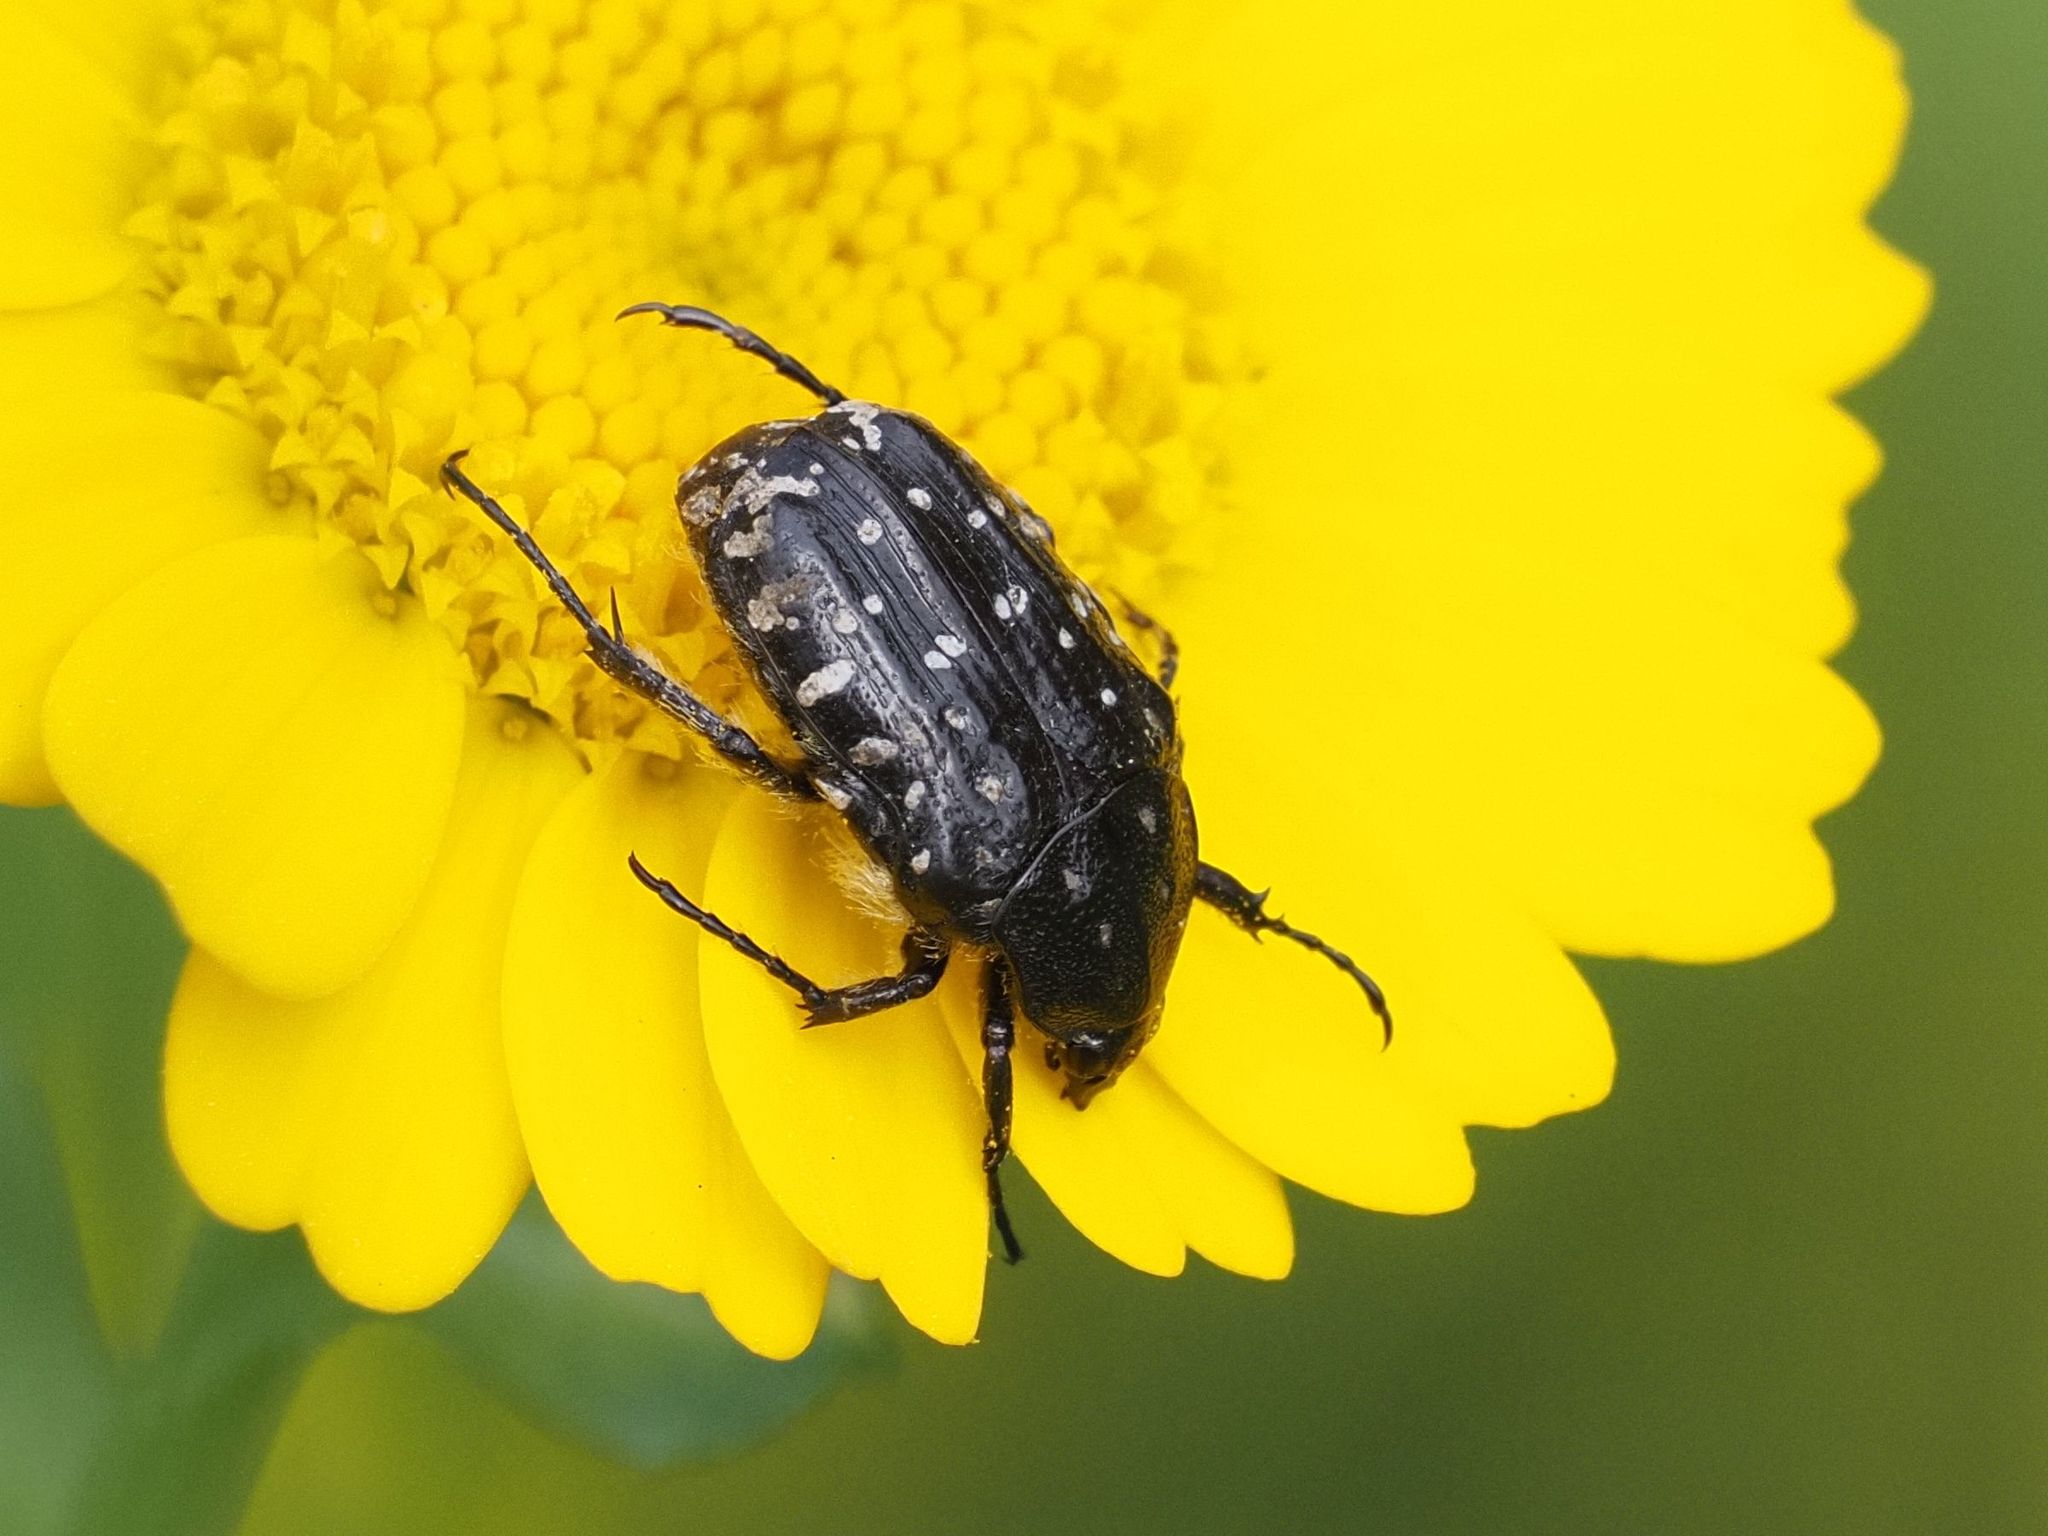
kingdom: Animalia
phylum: Arthropoda
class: Insecta
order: Coleoptera
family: Scarabaeidae
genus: Oxythyrea
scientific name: Oxythyrea funesta
